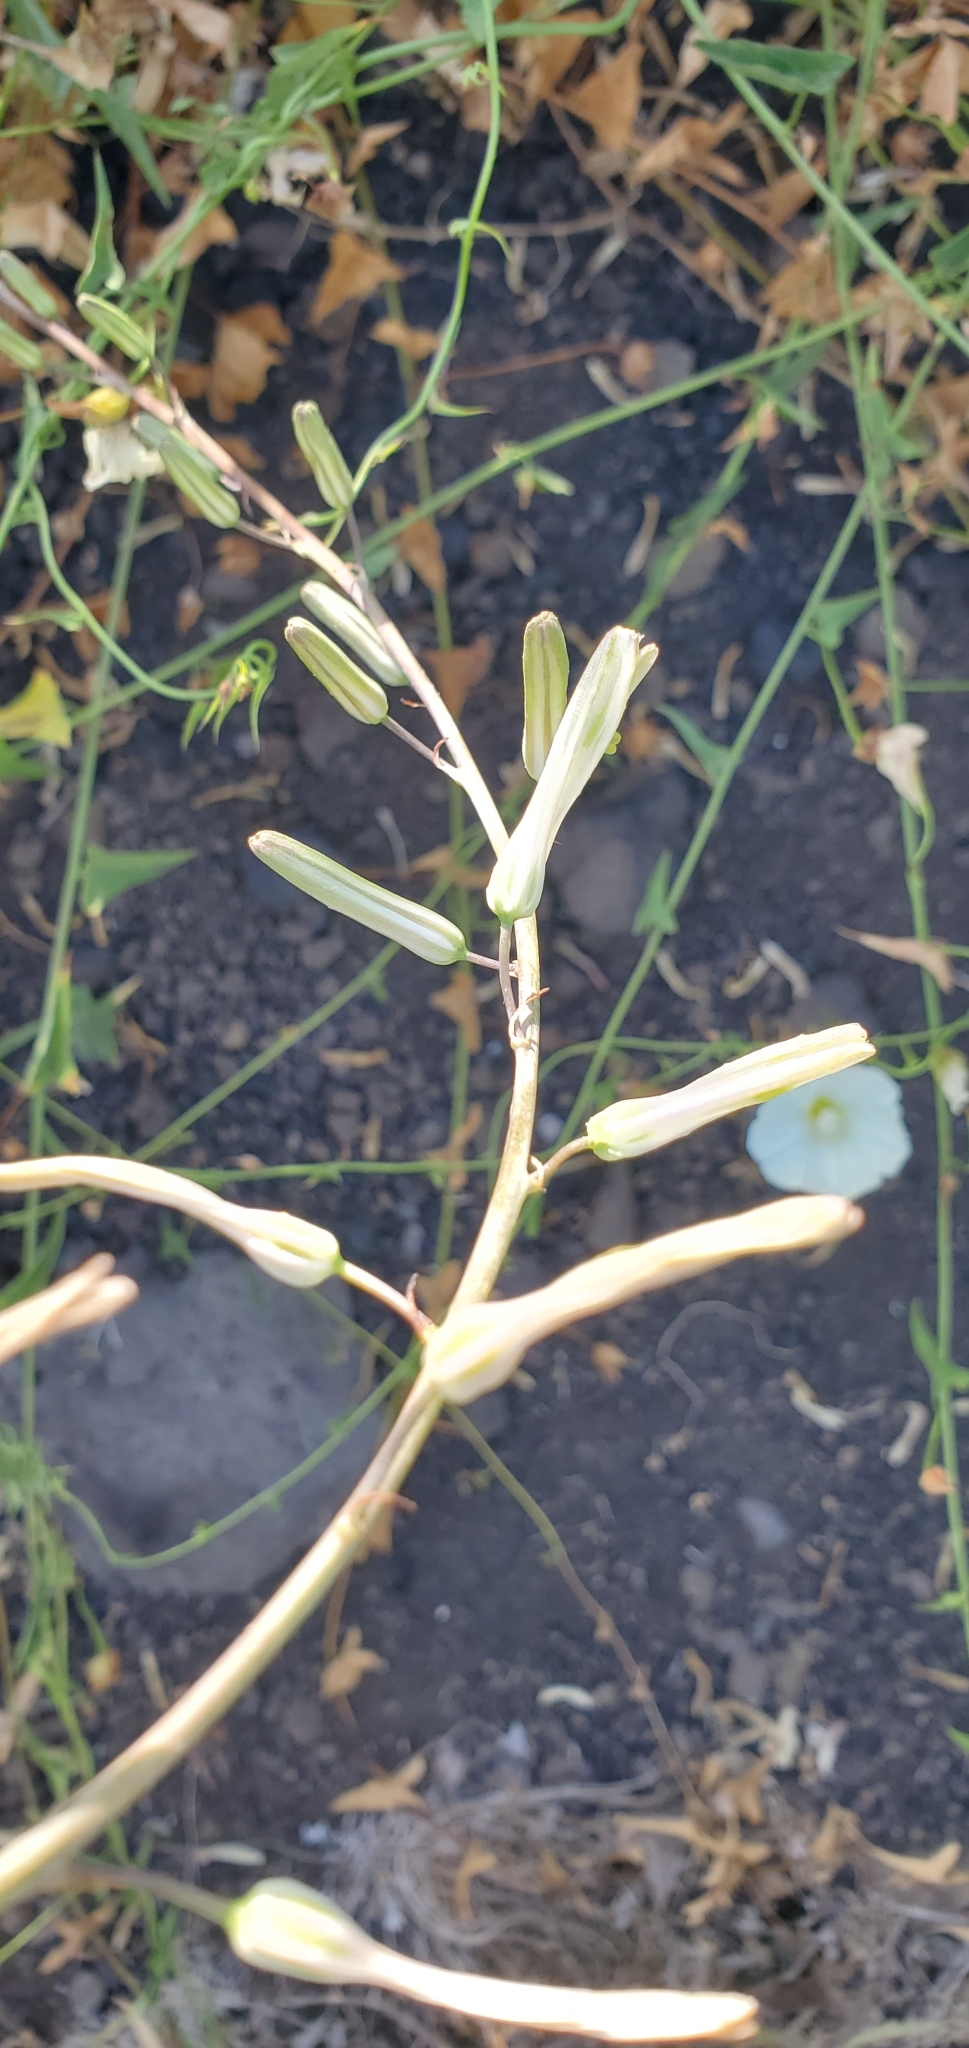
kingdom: Plantae
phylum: Tracheophyta
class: Liliopsida
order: Asparagales
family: Asparagaceae
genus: Chlorogalum
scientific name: Chlorogalum pomeridianum
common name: Amole
